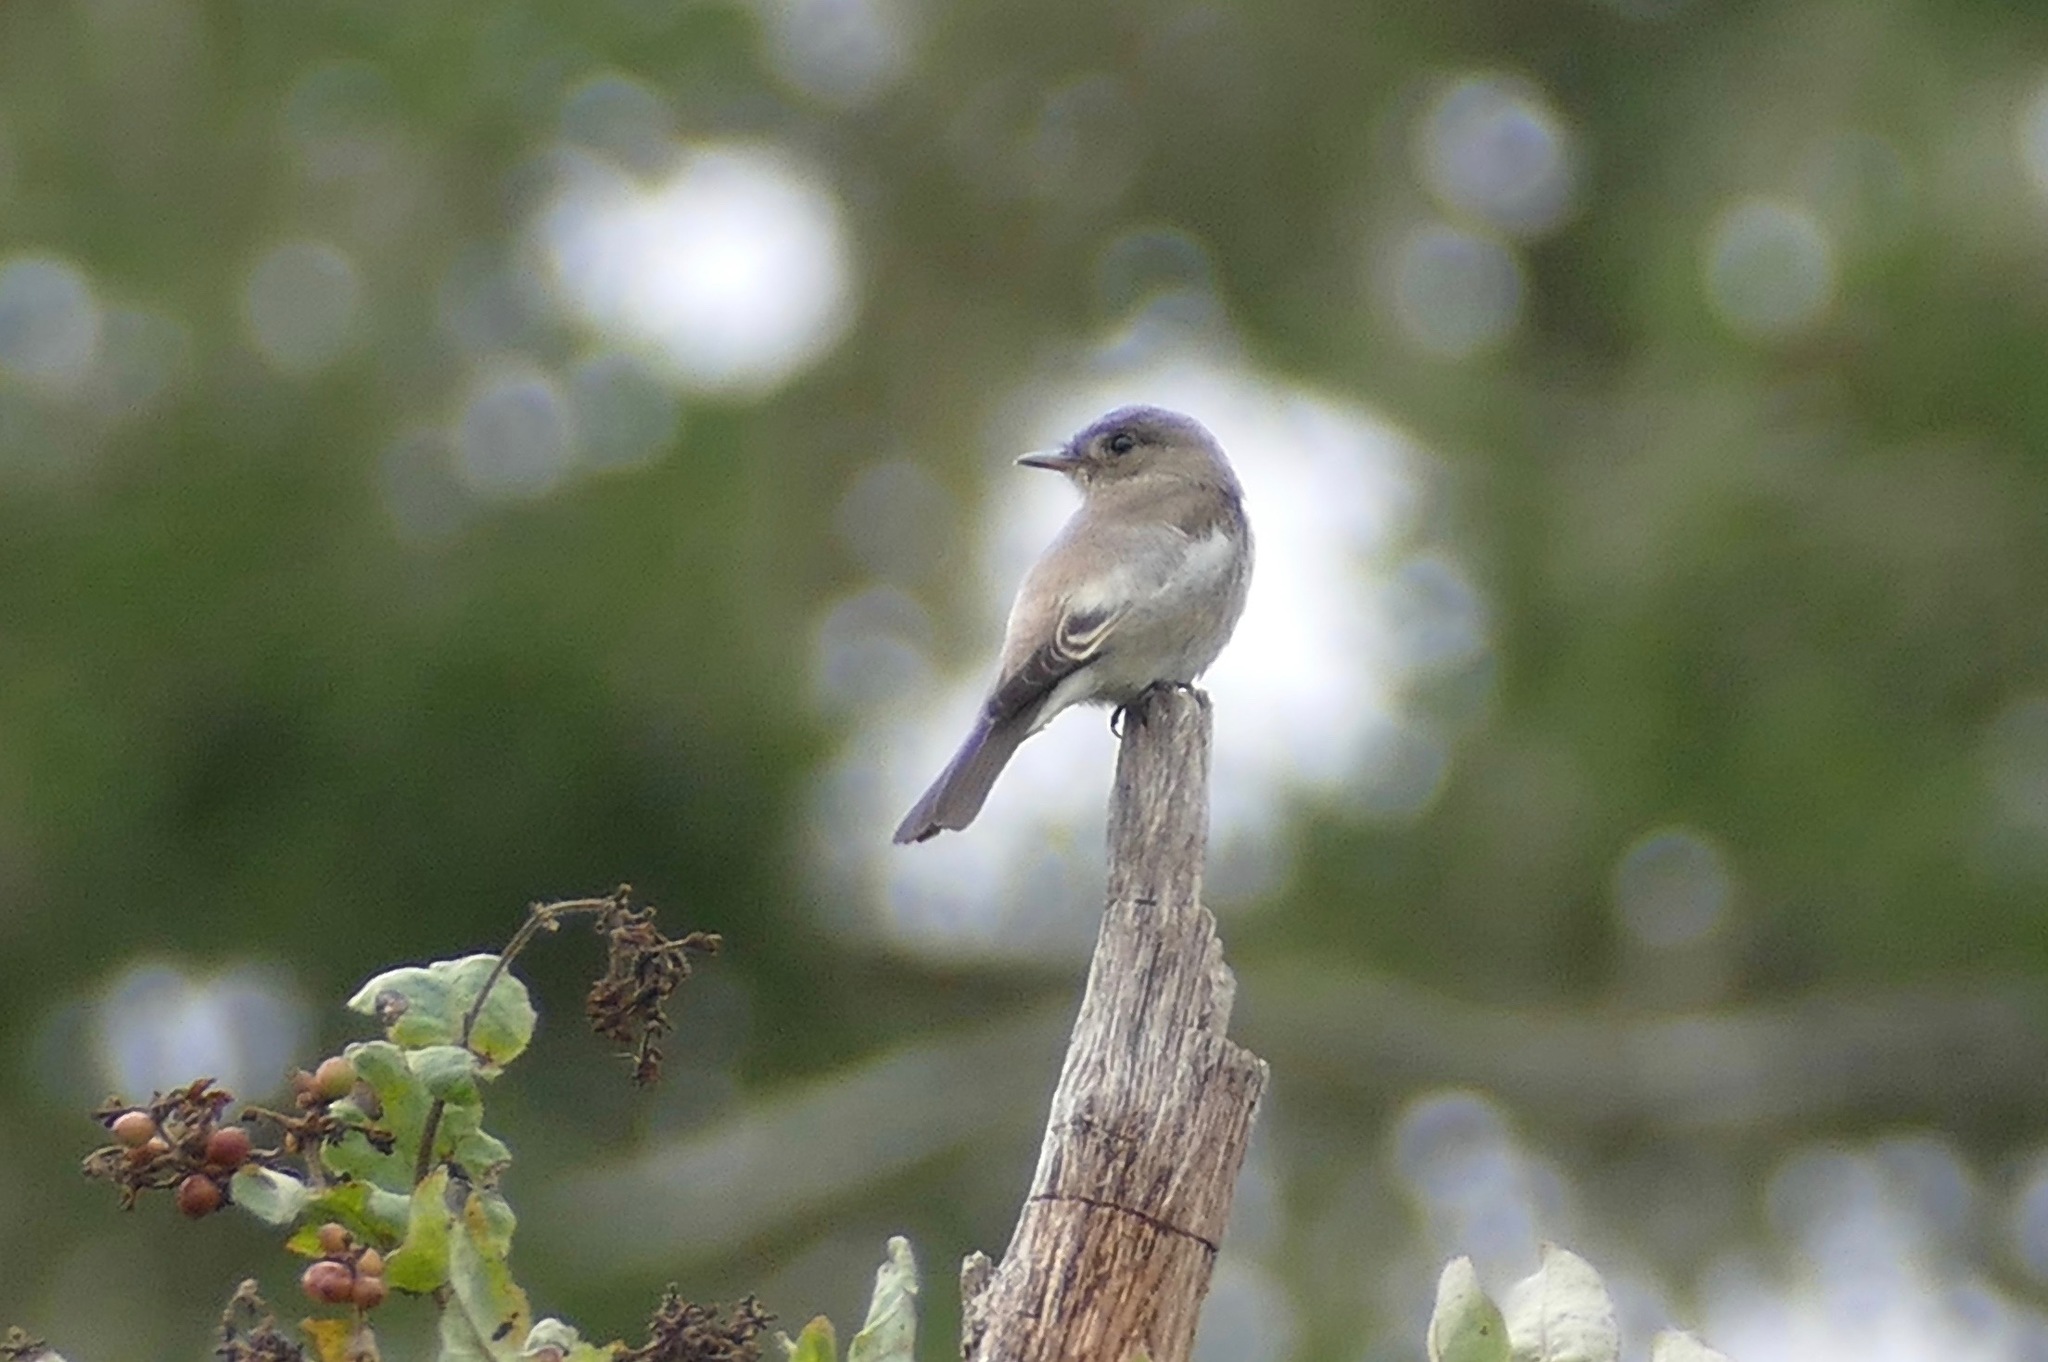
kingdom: Animalia
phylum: Chordata
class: Aves
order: Passeriformes
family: Tyrannidae
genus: Contopus
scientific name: Contopus sordidulus
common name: Western wood-pewee
